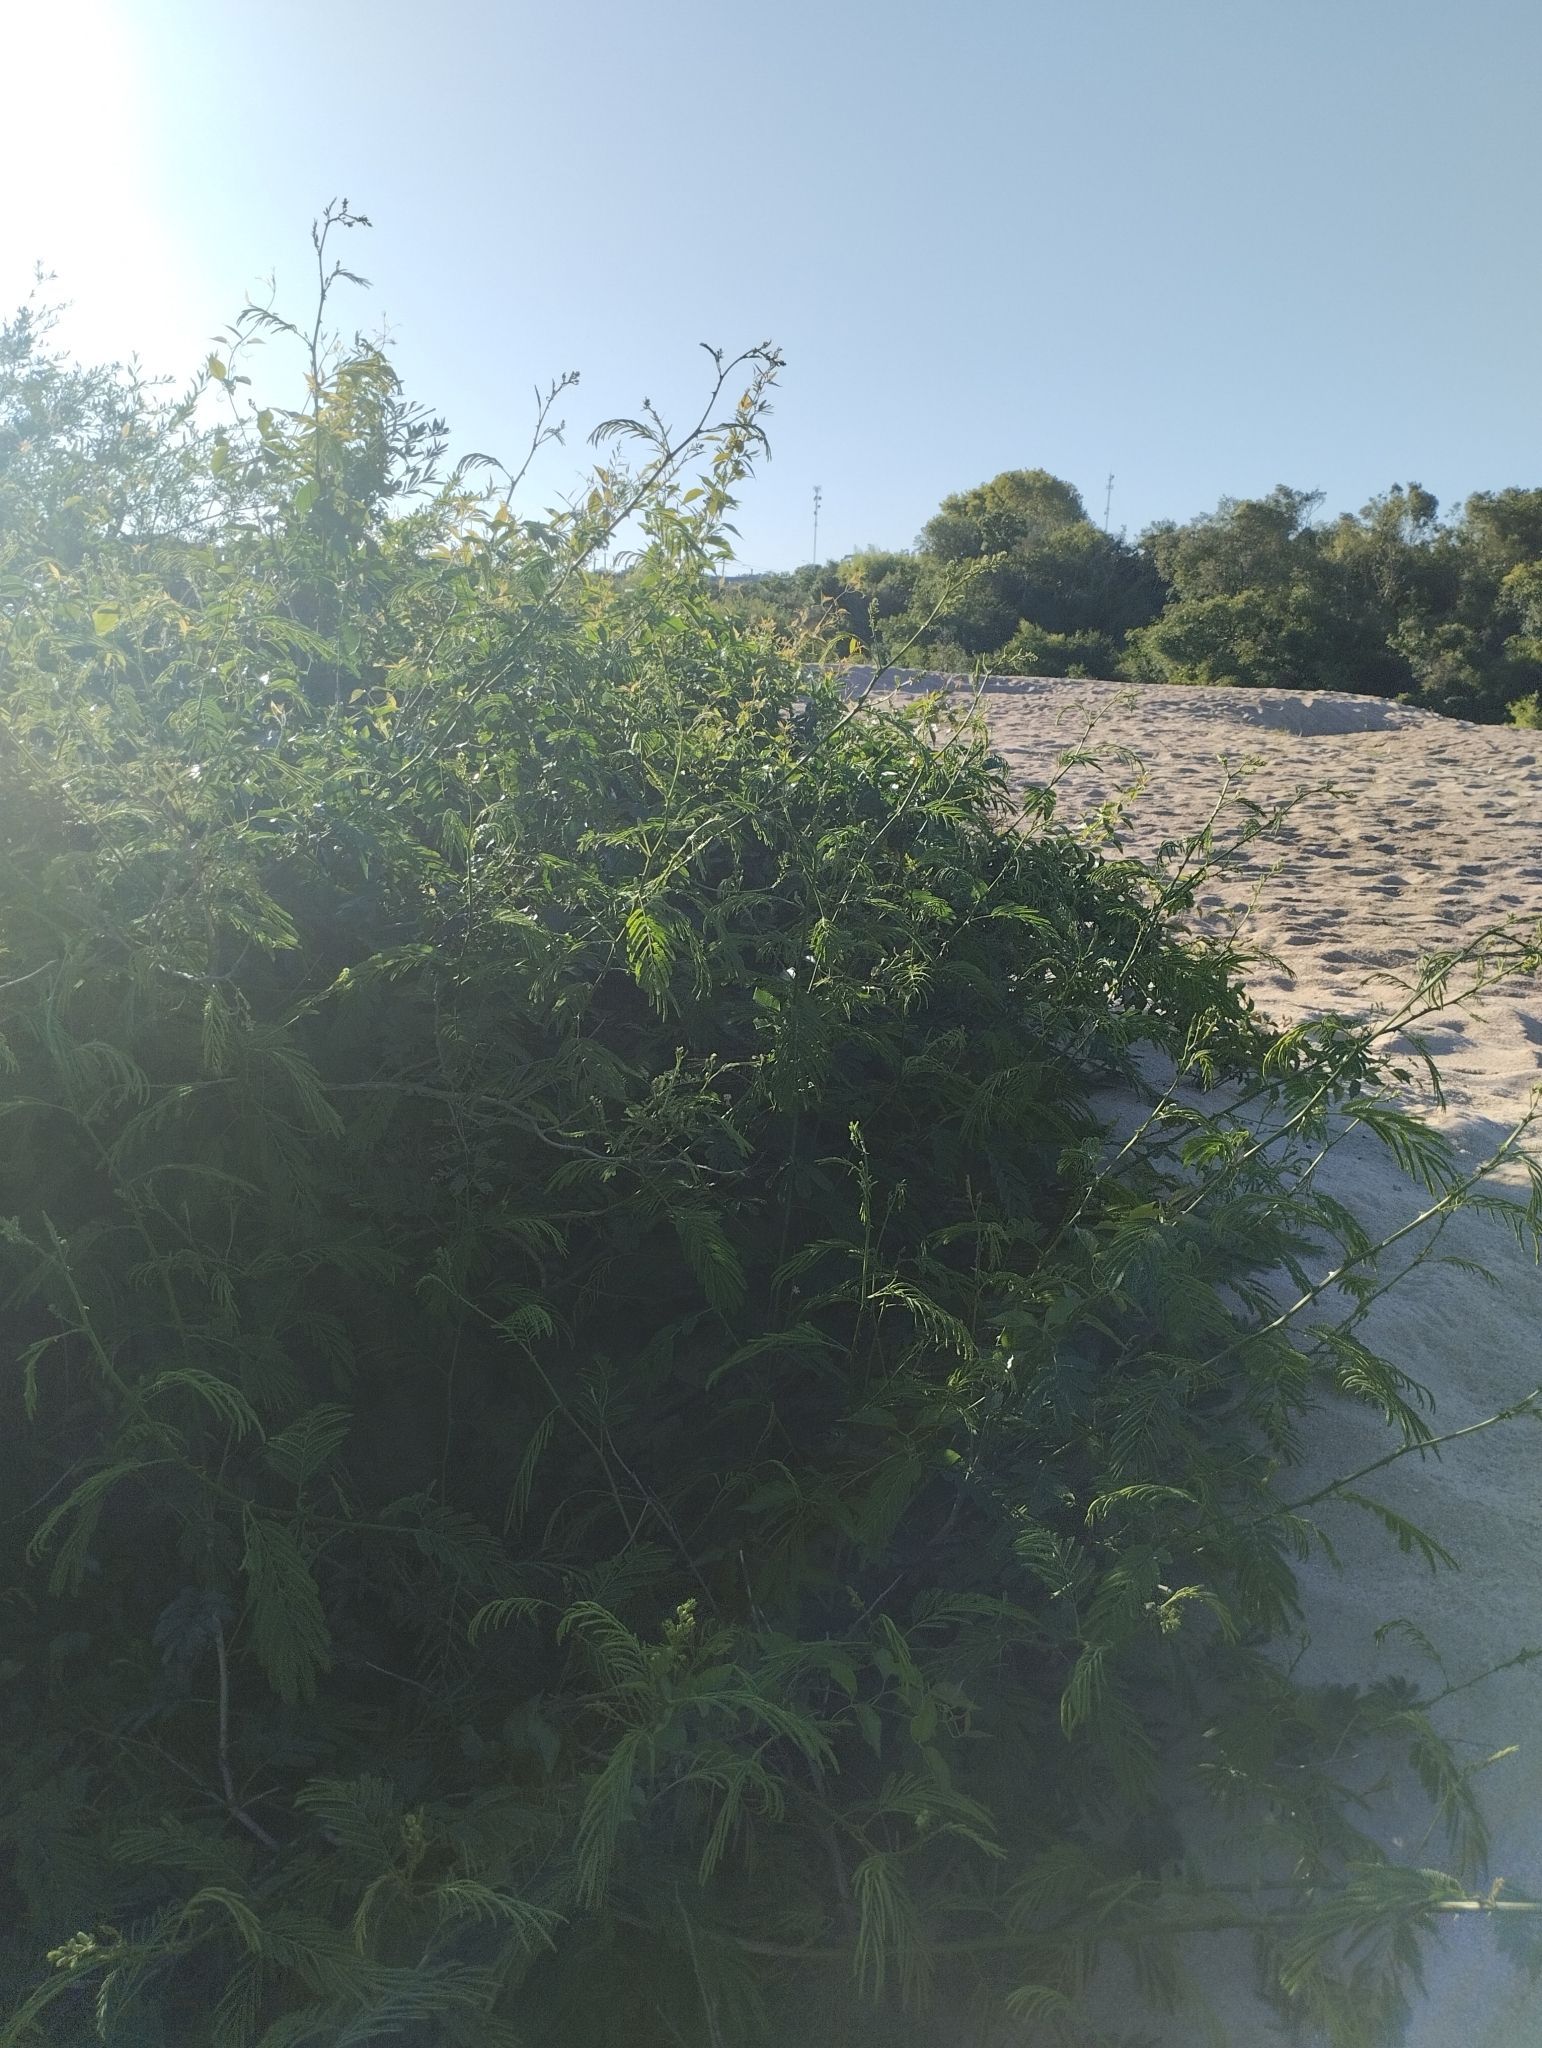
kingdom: Plantae
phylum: Tracheophyta
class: Magnoliopsida
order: Fabales
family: Fabaceae
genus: Senegalia
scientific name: Senegalia bonariensis
